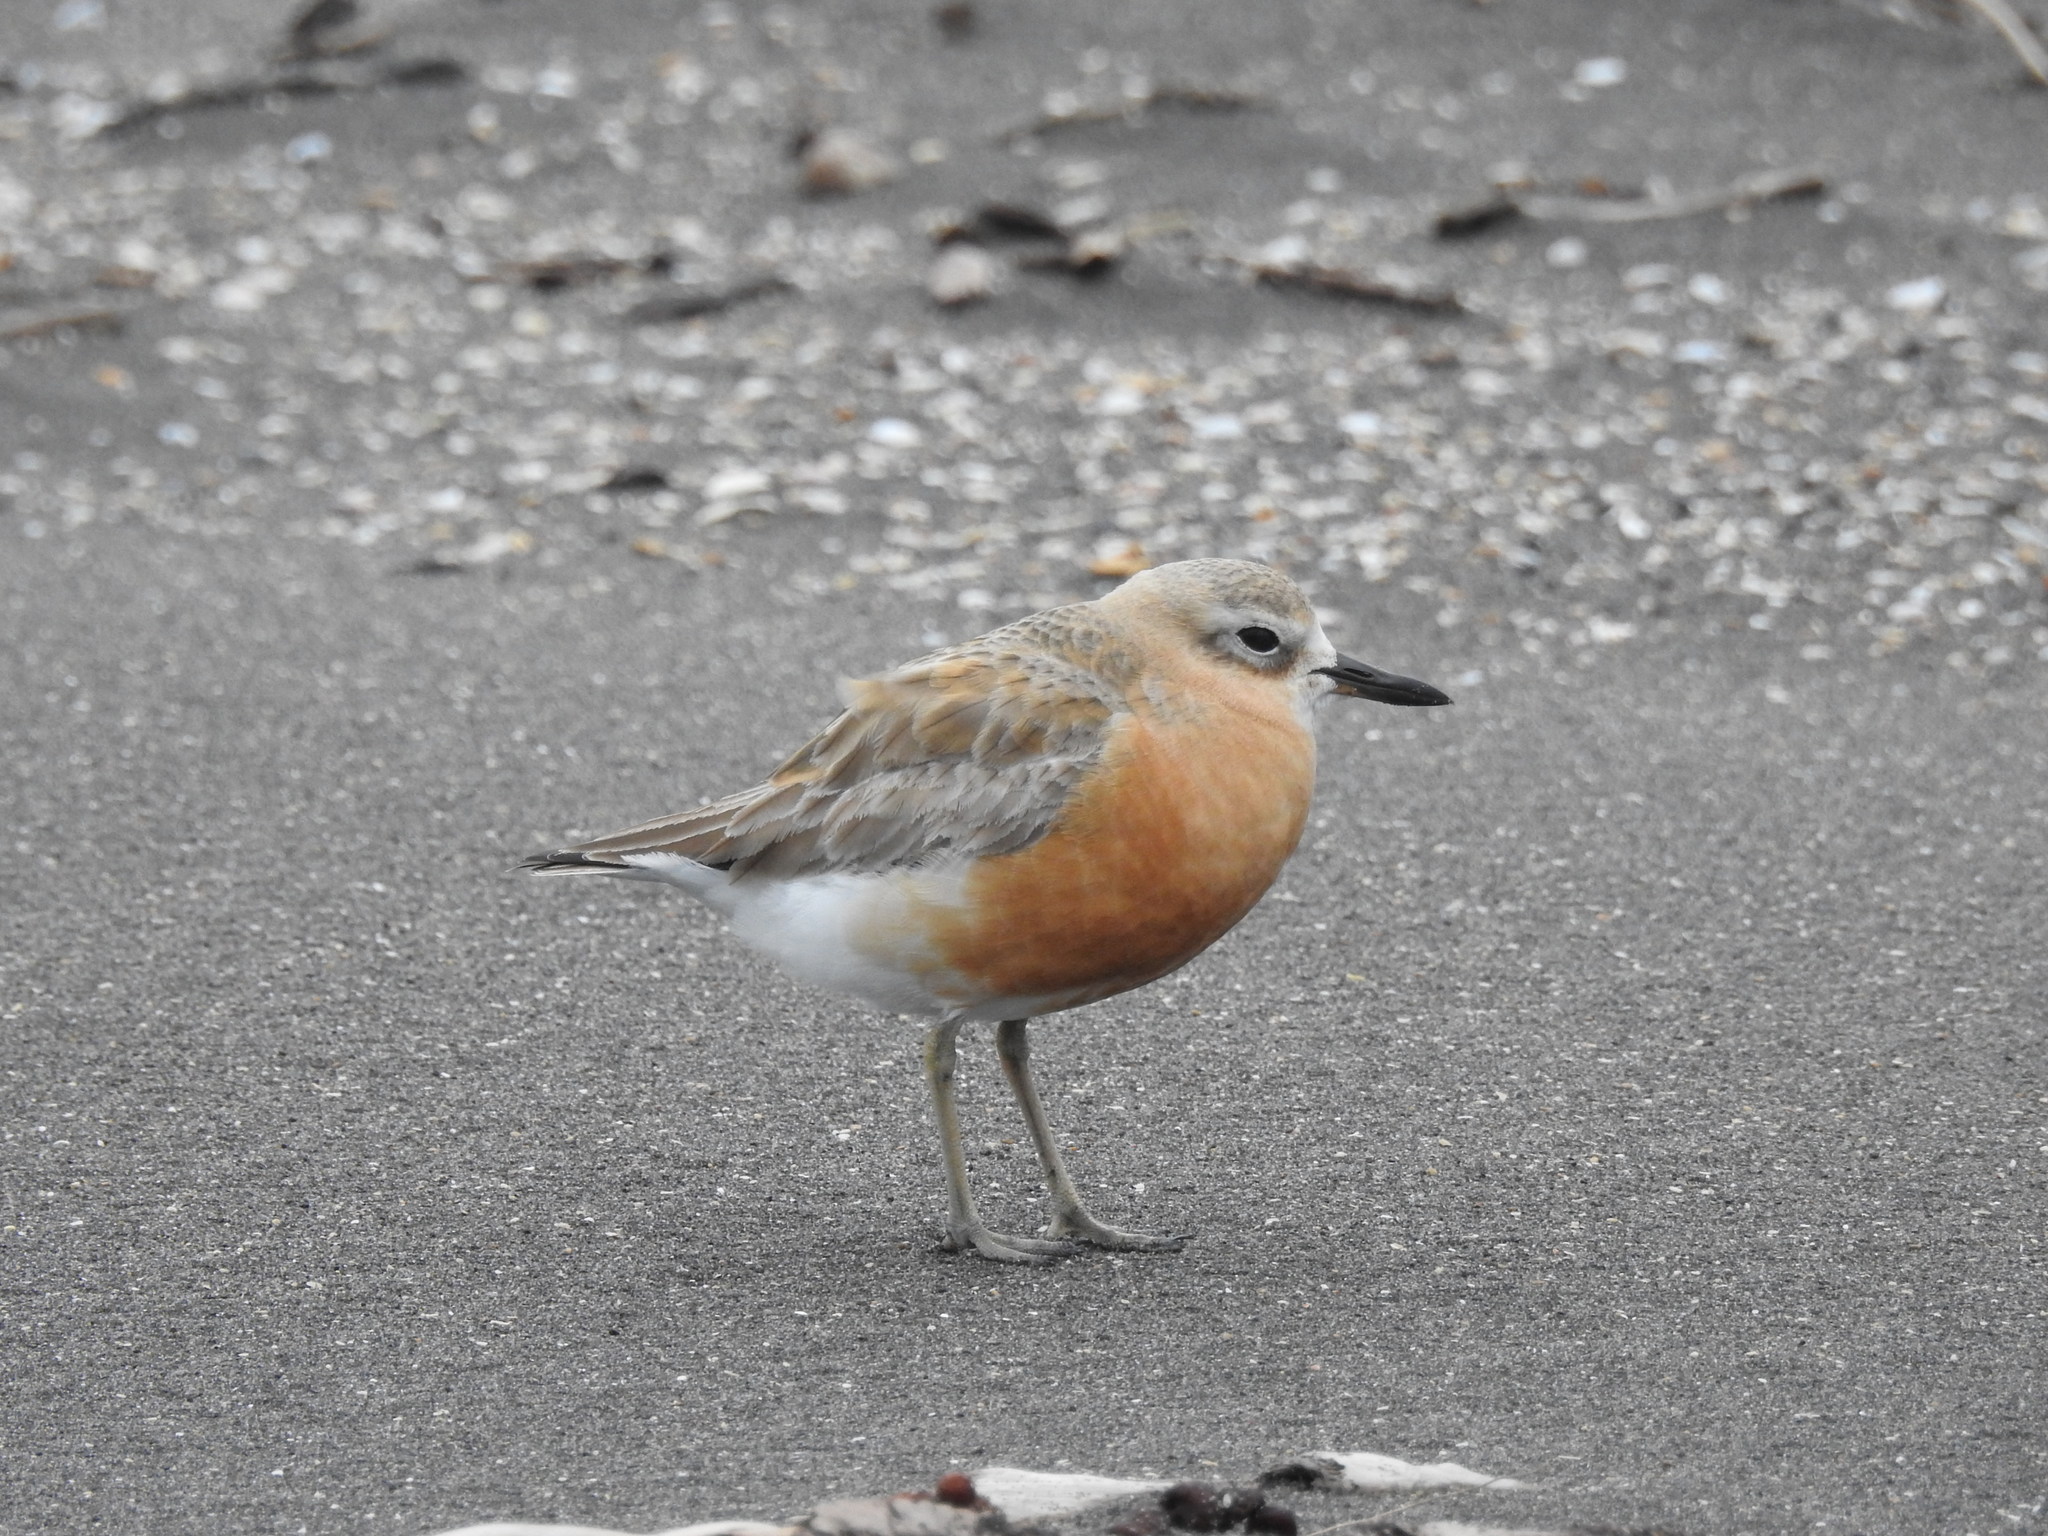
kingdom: Animalia
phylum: Chordata
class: Aves
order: Charadriiformes
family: Charadriidae
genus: Anarhynchus
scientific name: Anarhynchus
